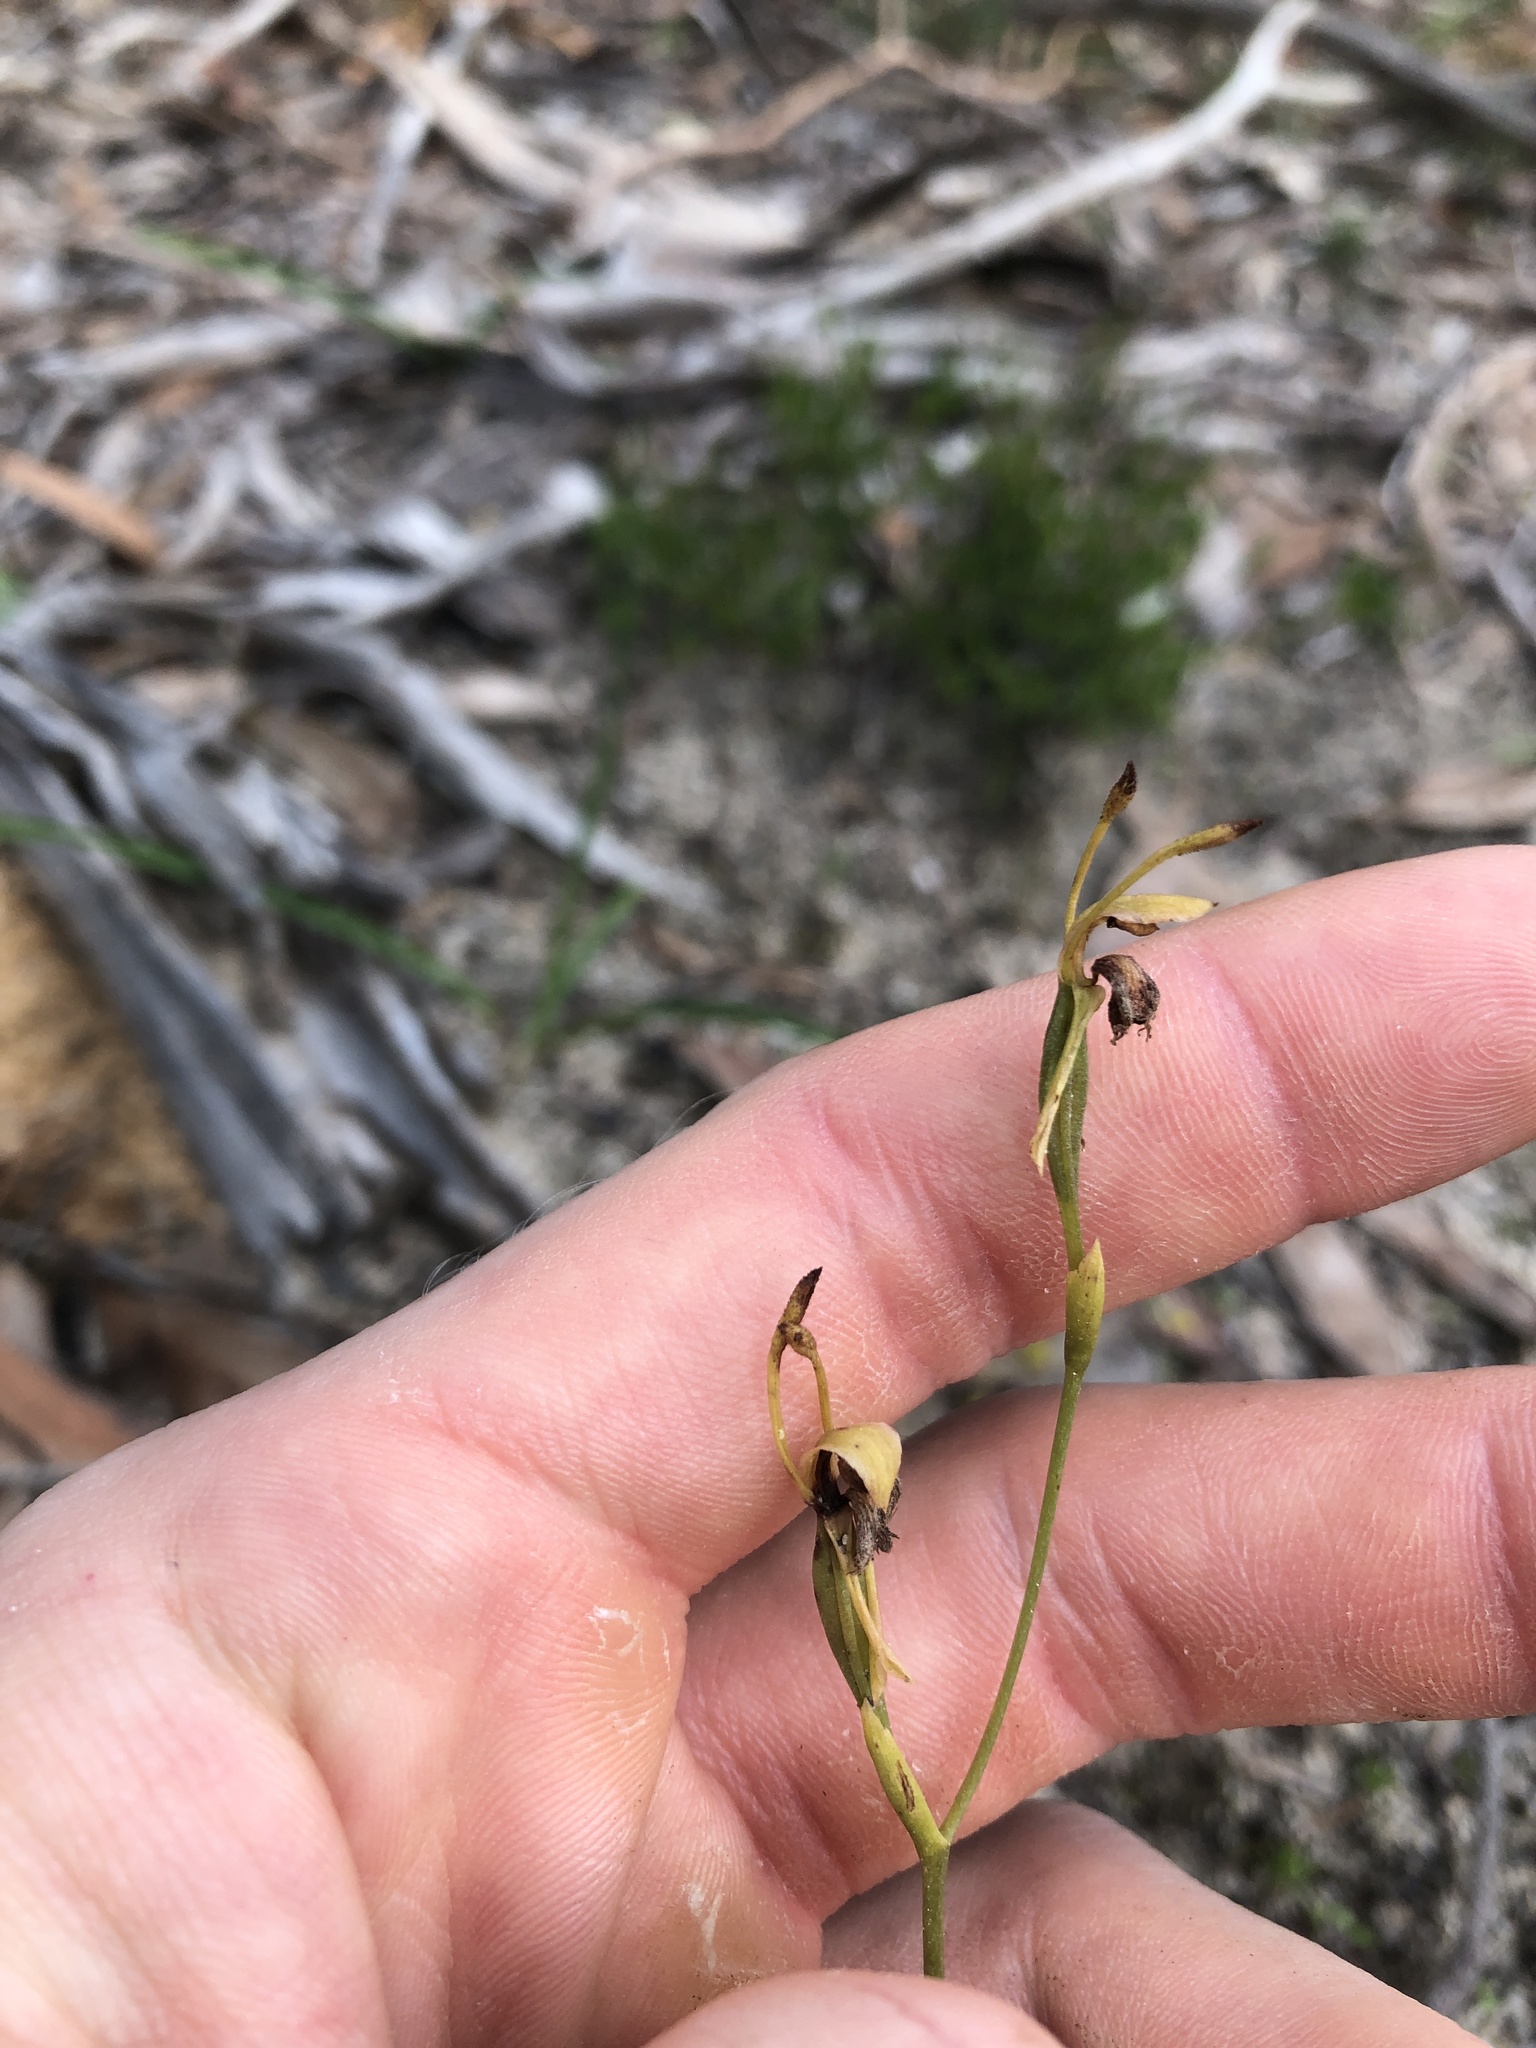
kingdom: Plantae
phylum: Tracheophyta
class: Liliopsida
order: Asparagales
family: Orchidaceae
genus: Leporella
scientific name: Leporella fimbriata
